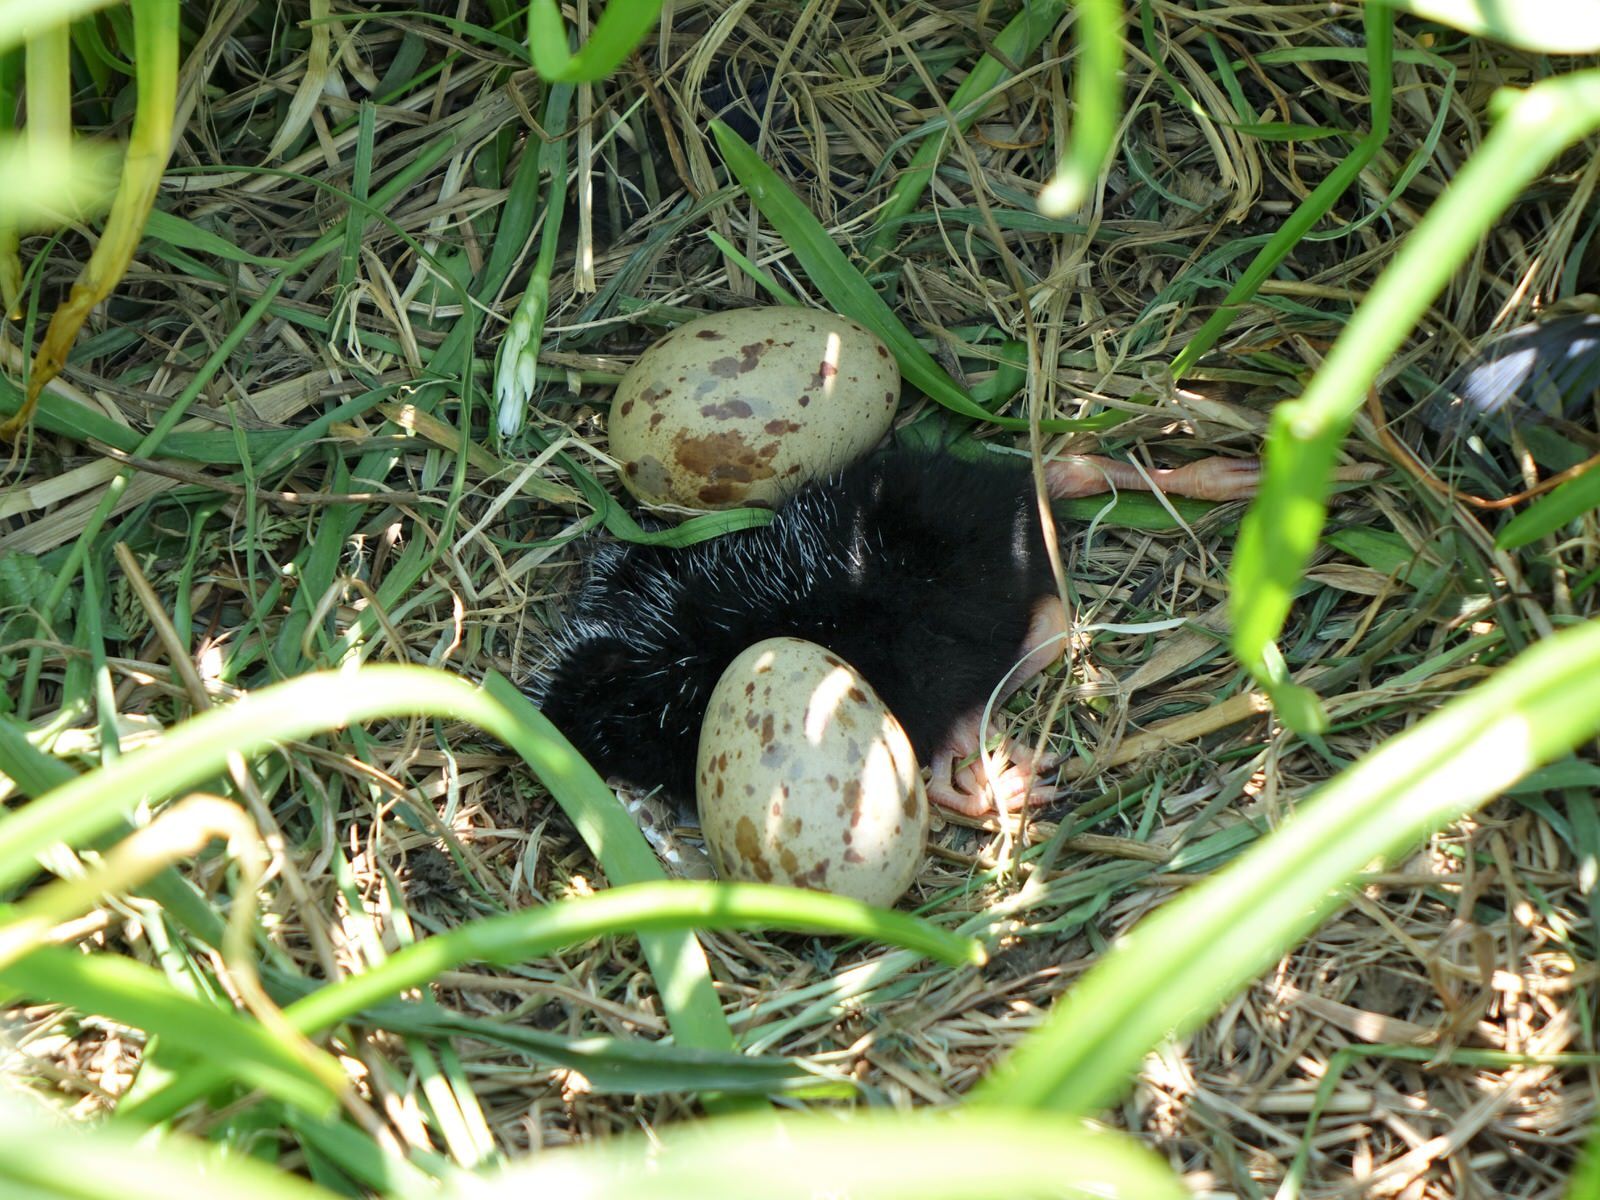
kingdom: Animalia
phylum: Chordata
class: Aves
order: Gruiformes
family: Rallidae
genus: Porphyrio
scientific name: Porphyrio melanotus
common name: Australasian swamphen
